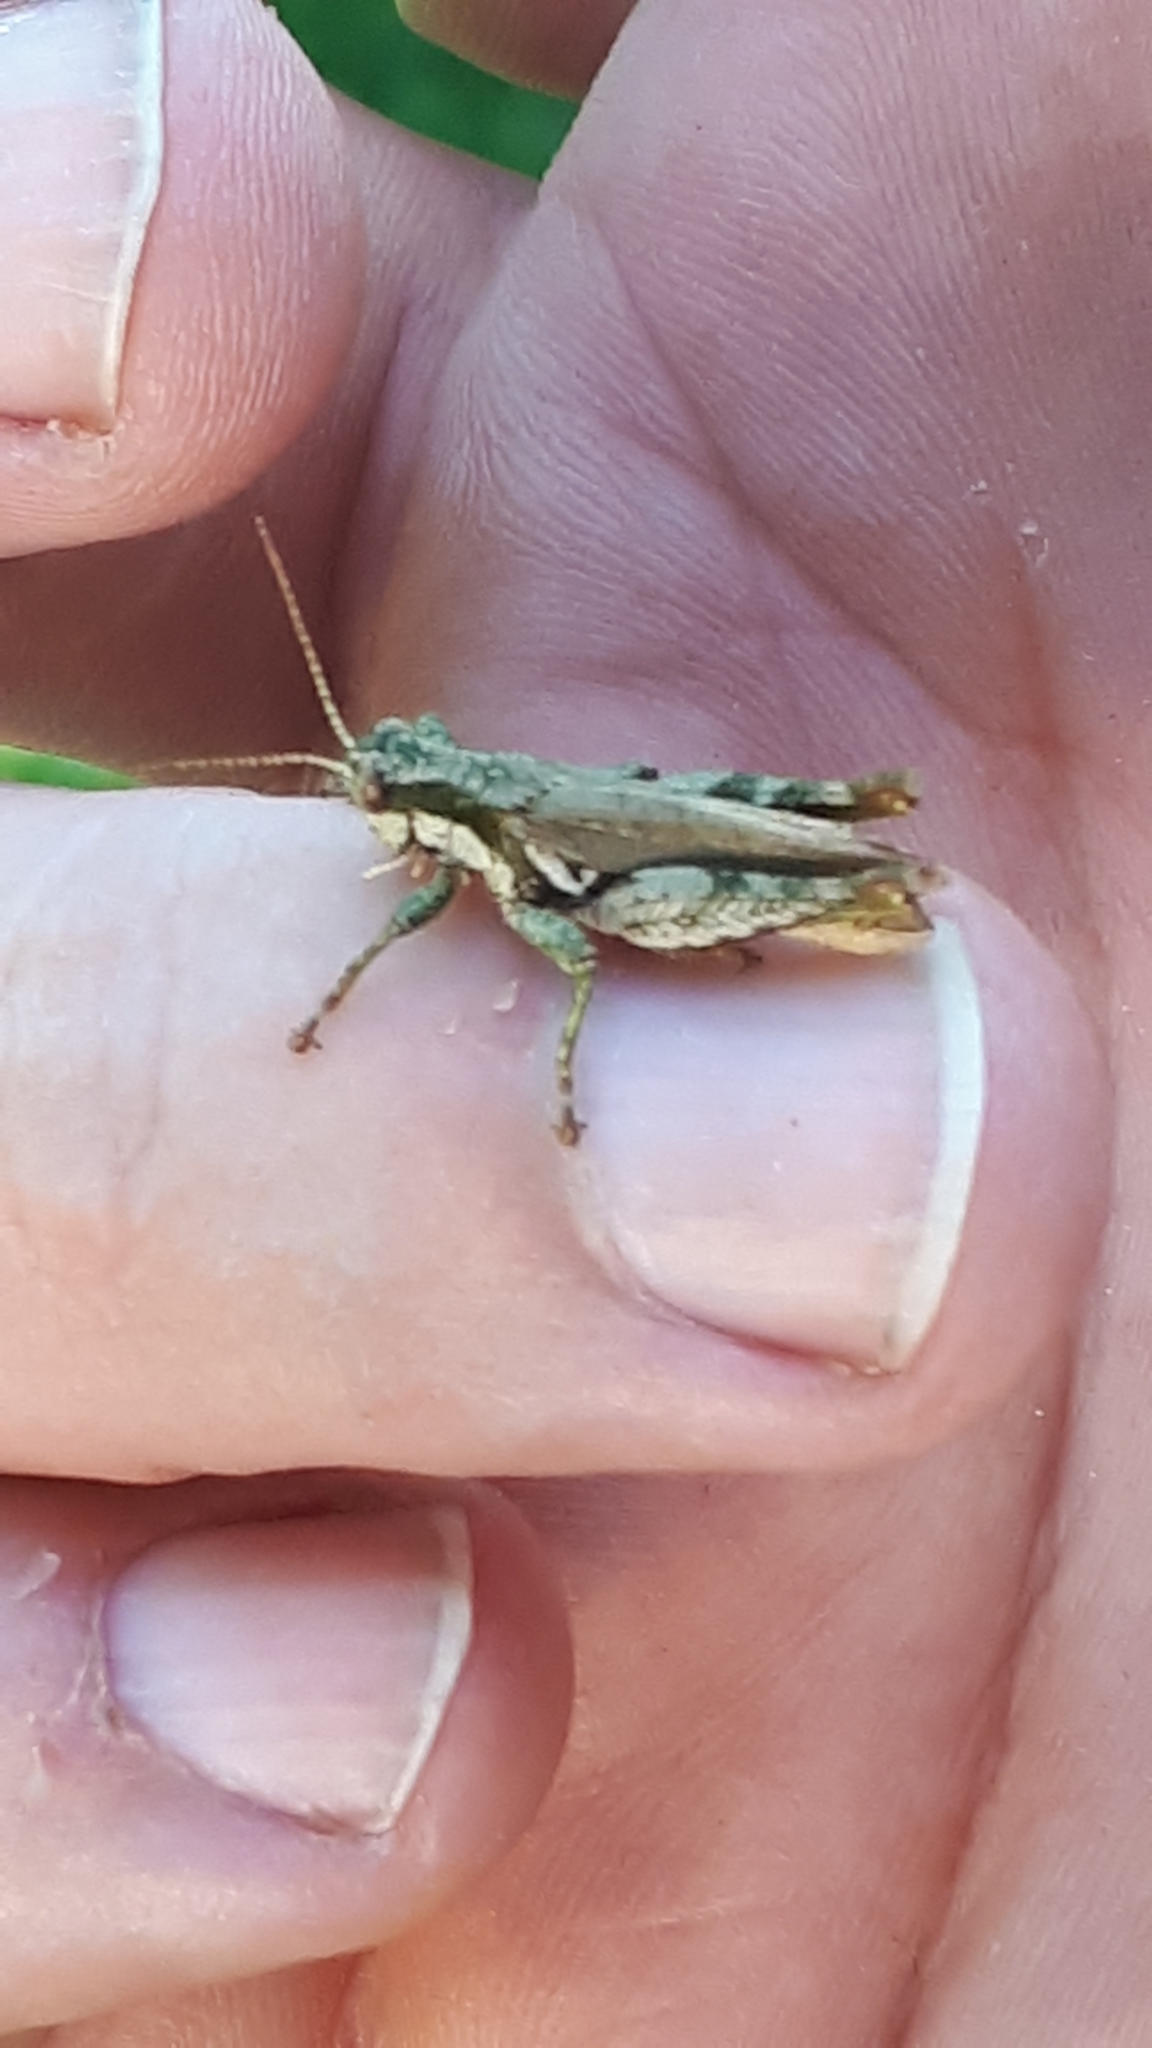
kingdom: Animalia
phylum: Arthropoda
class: Insecta
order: Orthoptera
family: Acrididae
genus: Ronderosia
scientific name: Ronderosia bergii
